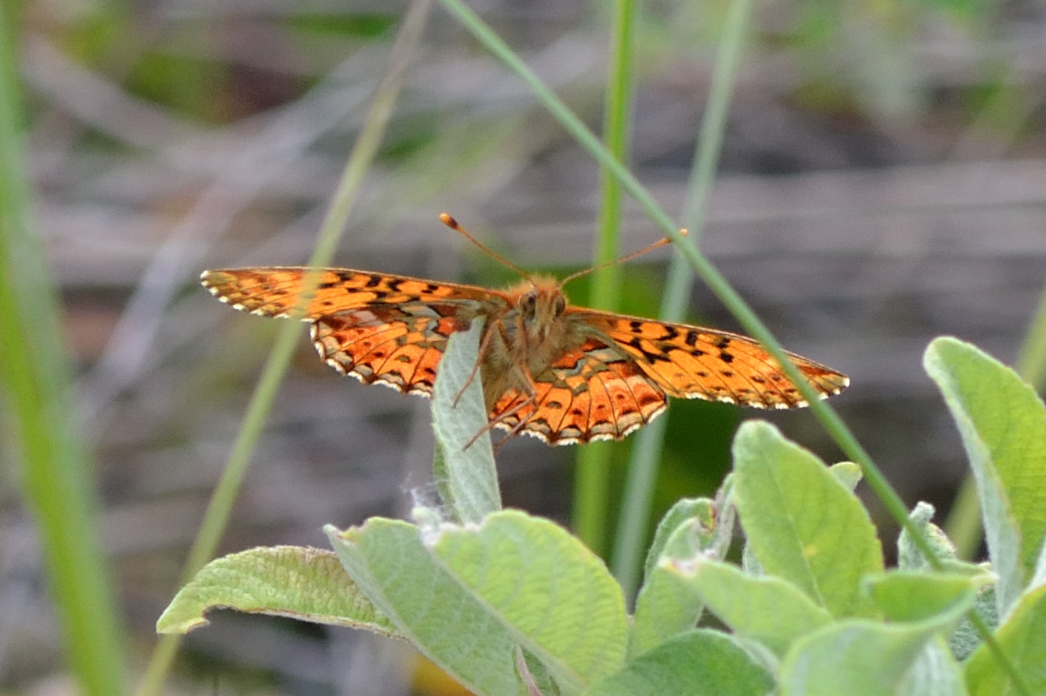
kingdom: Animalia
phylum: Arthropoda
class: Insecta
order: Lepidoptera
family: Nymphalidae
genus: Boloria
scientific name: Boloria aquilonaris
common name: Cranberry fritillary
